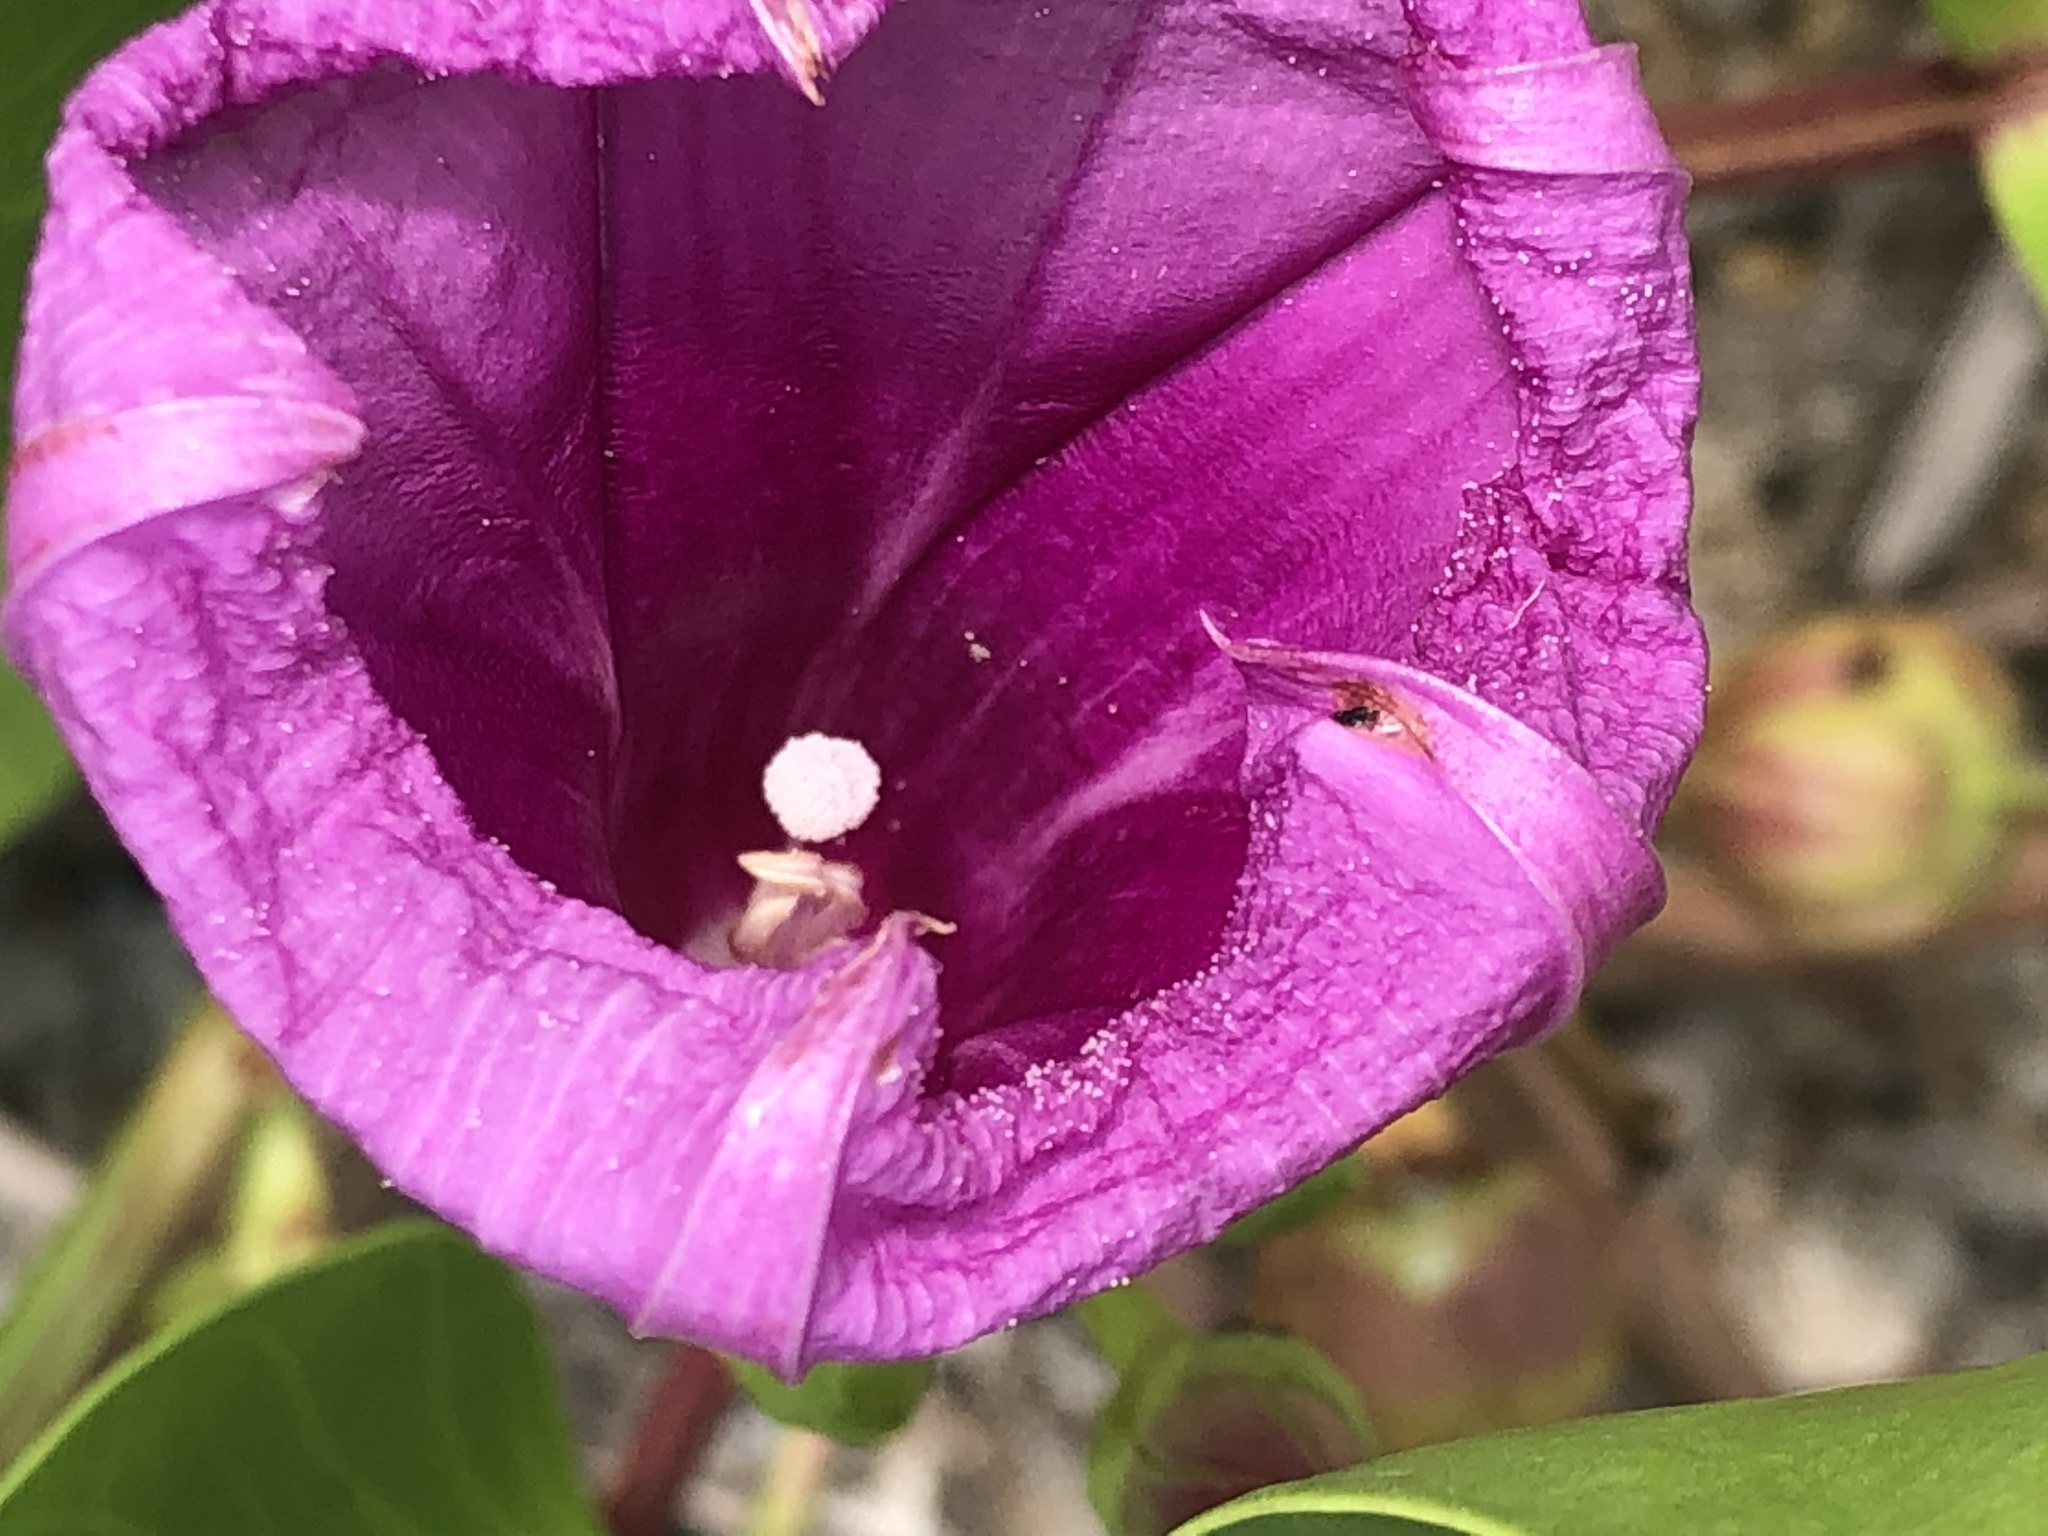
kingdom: Plantae
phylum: Tracheophyta
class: Magnoliopsida
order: Solanales
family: Convolvulaceae
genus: Ipomoea
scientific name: Ipomoea pes-caprae
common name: Beach morning glory
